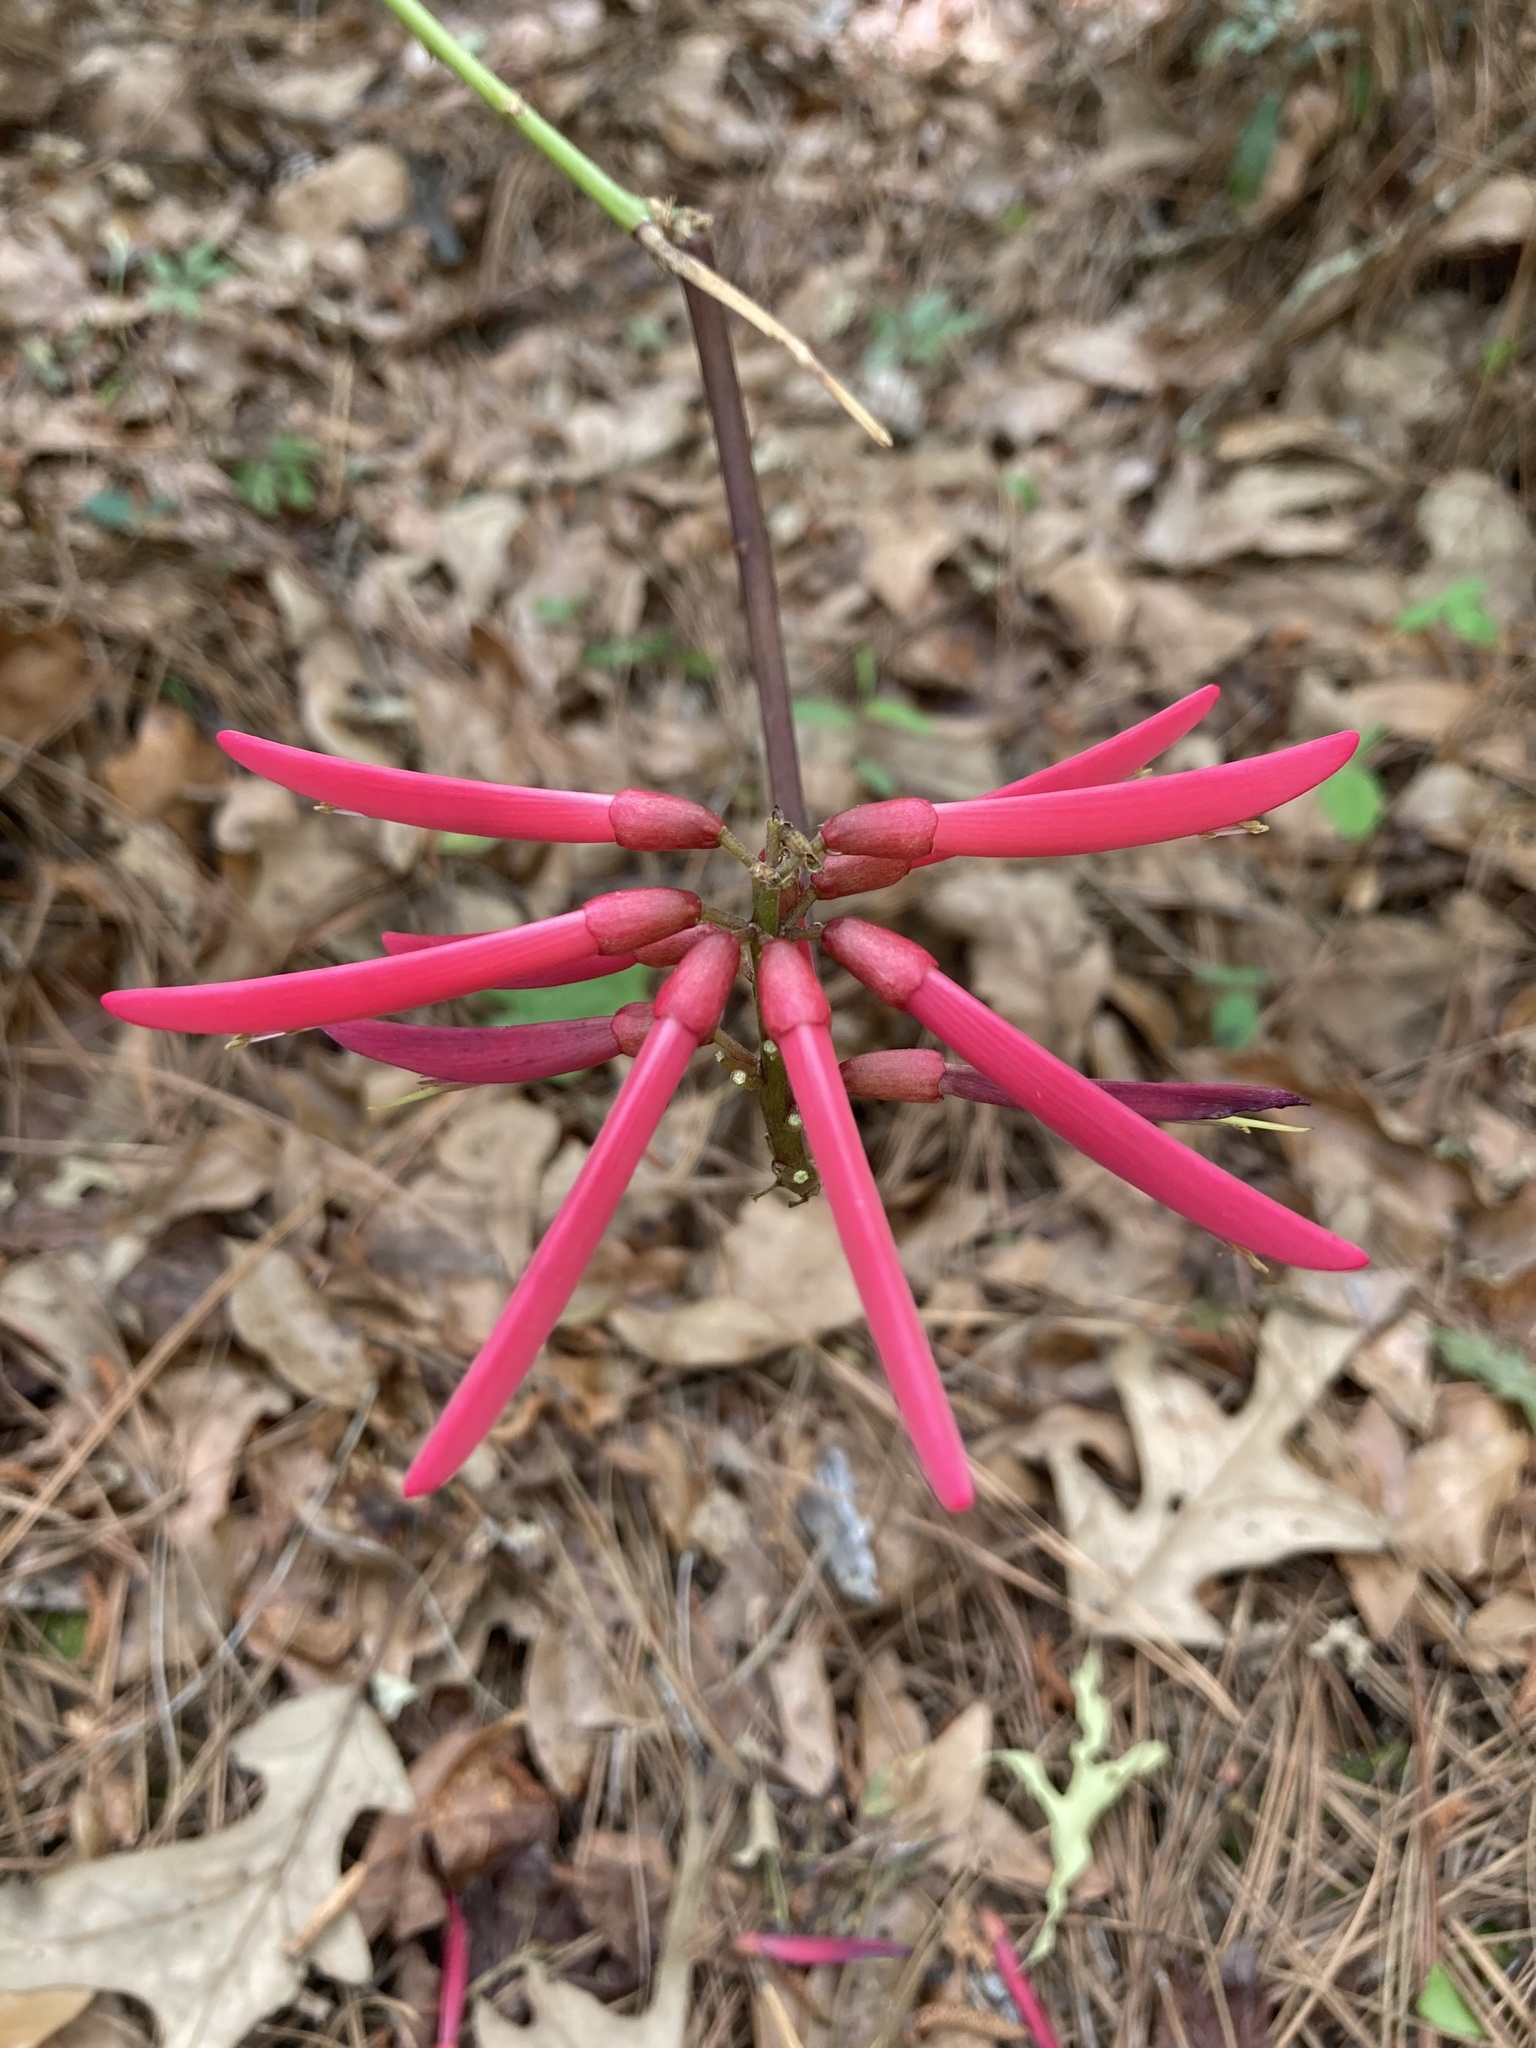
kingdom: Plantae
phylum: Tracheophyta
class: Magnoliopsida
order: Fabales
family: Fabaceae
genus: Erythrina
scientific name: Erythrina herbacea
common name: Coral-bean
